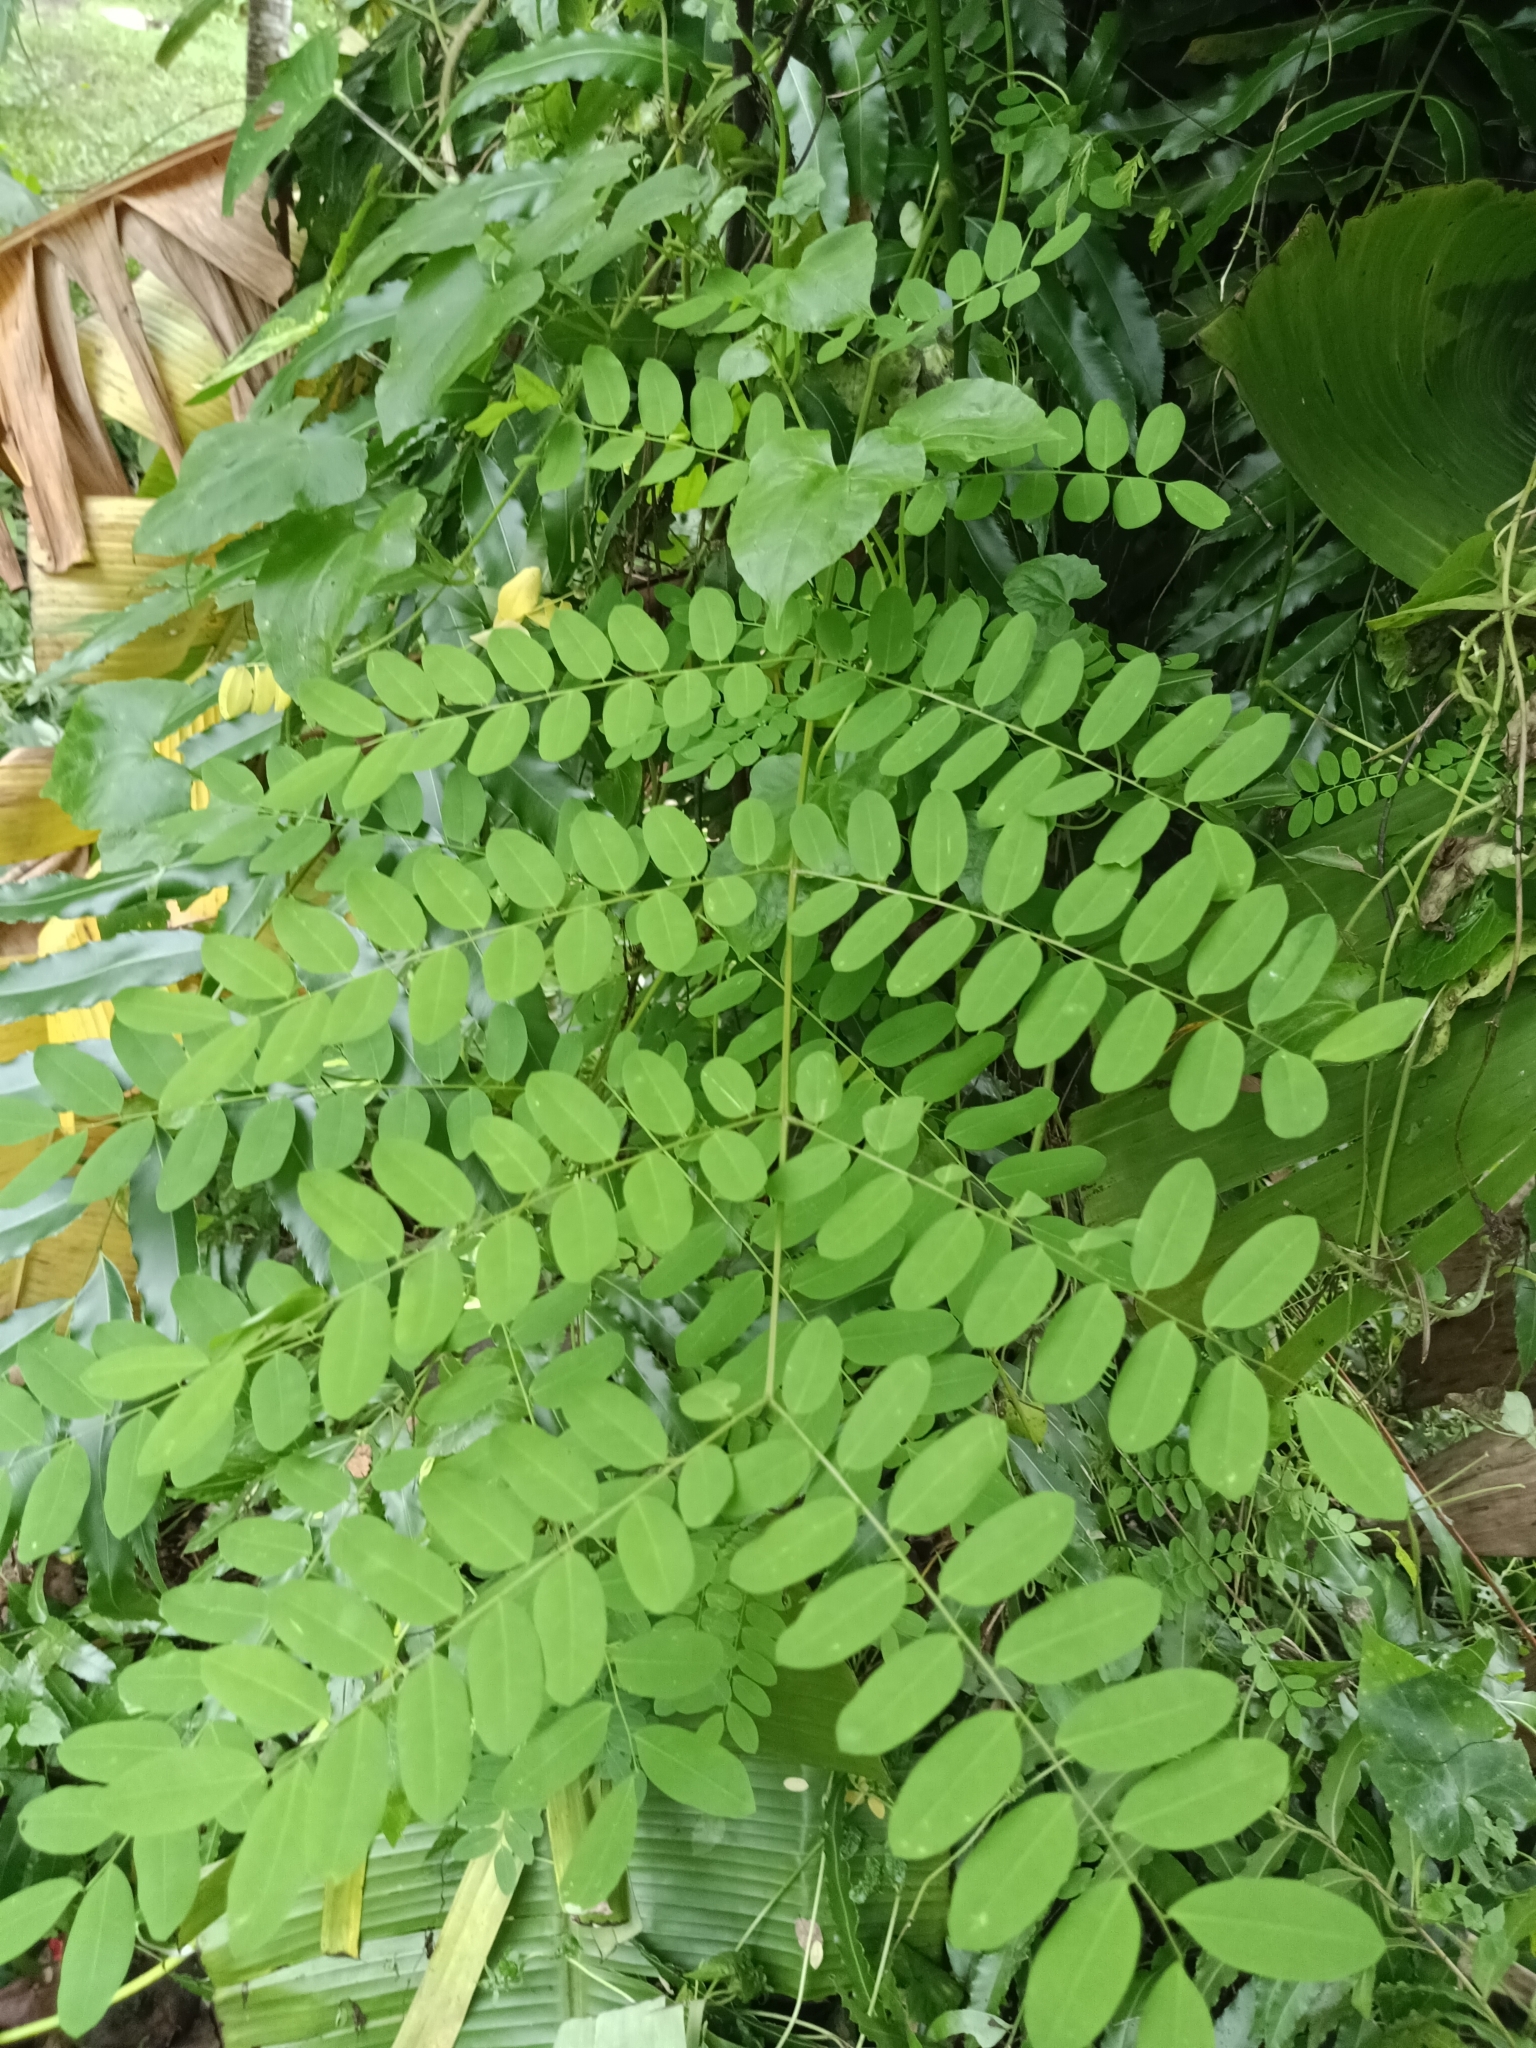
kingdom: Plantae
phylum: Tracheophyta
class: Magnoliopsida
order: Fabales
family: Fabaceae
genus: Adenanthera
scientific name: Adenanthera pavonina
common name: Red beadtree
